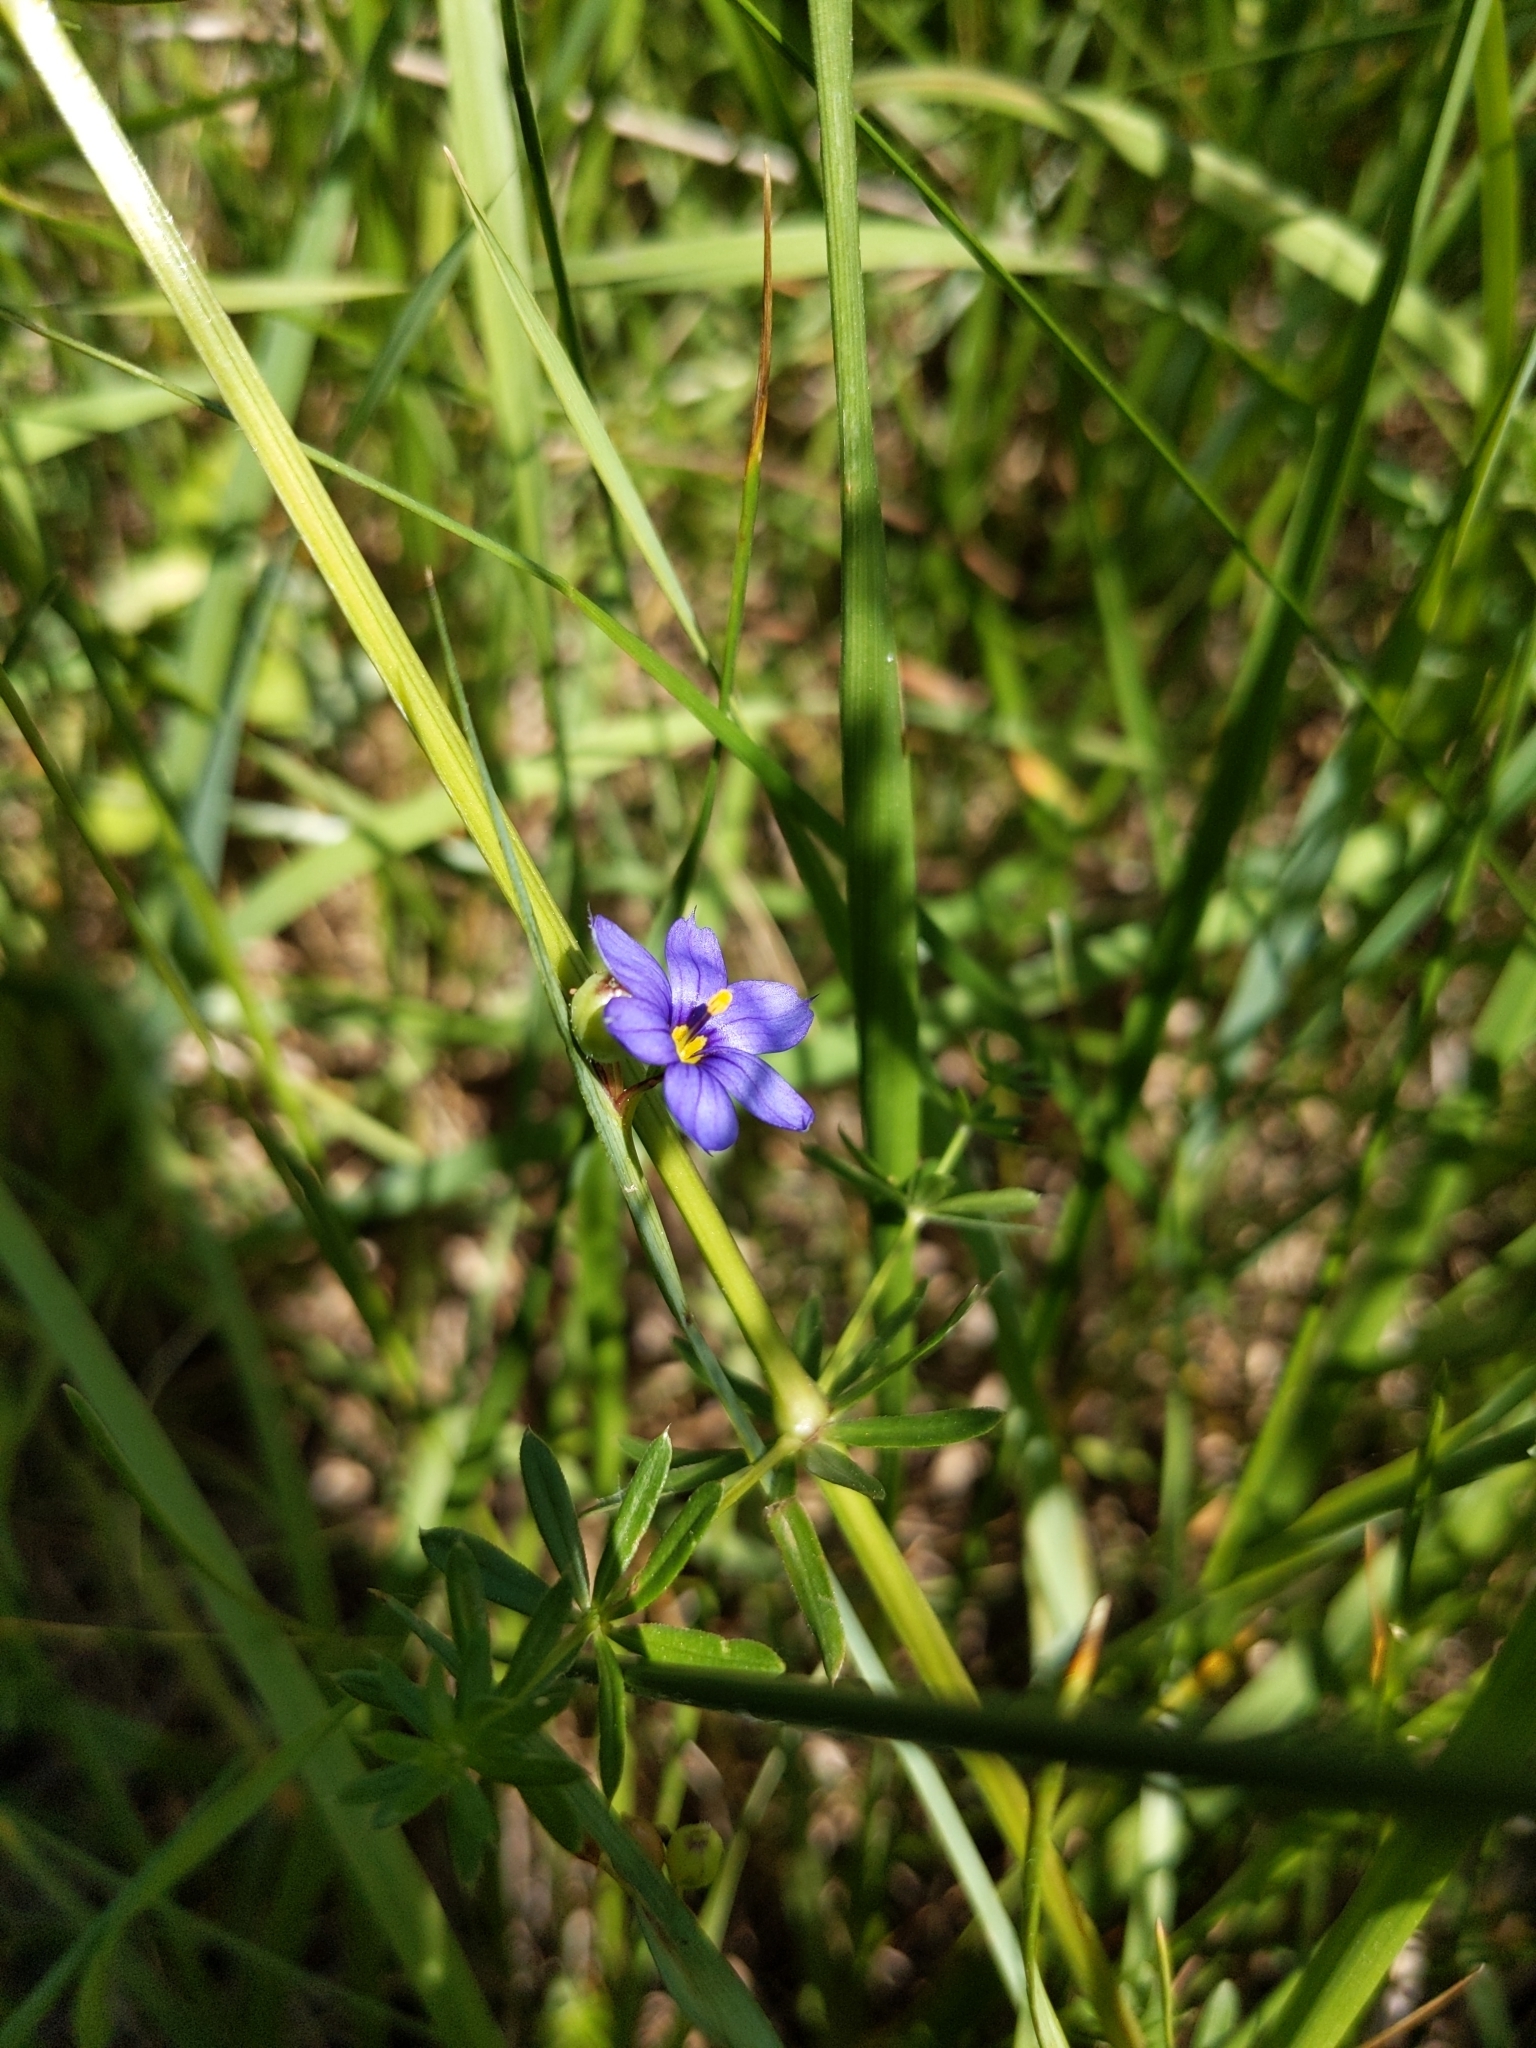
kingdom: Plantae
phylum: Tracheophyta
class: Liliopsida
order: Asparagales
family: Iridaceae
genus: Sisyrinchium
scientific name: Sisyrinchium montanum
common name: American blue-eyed-grass
